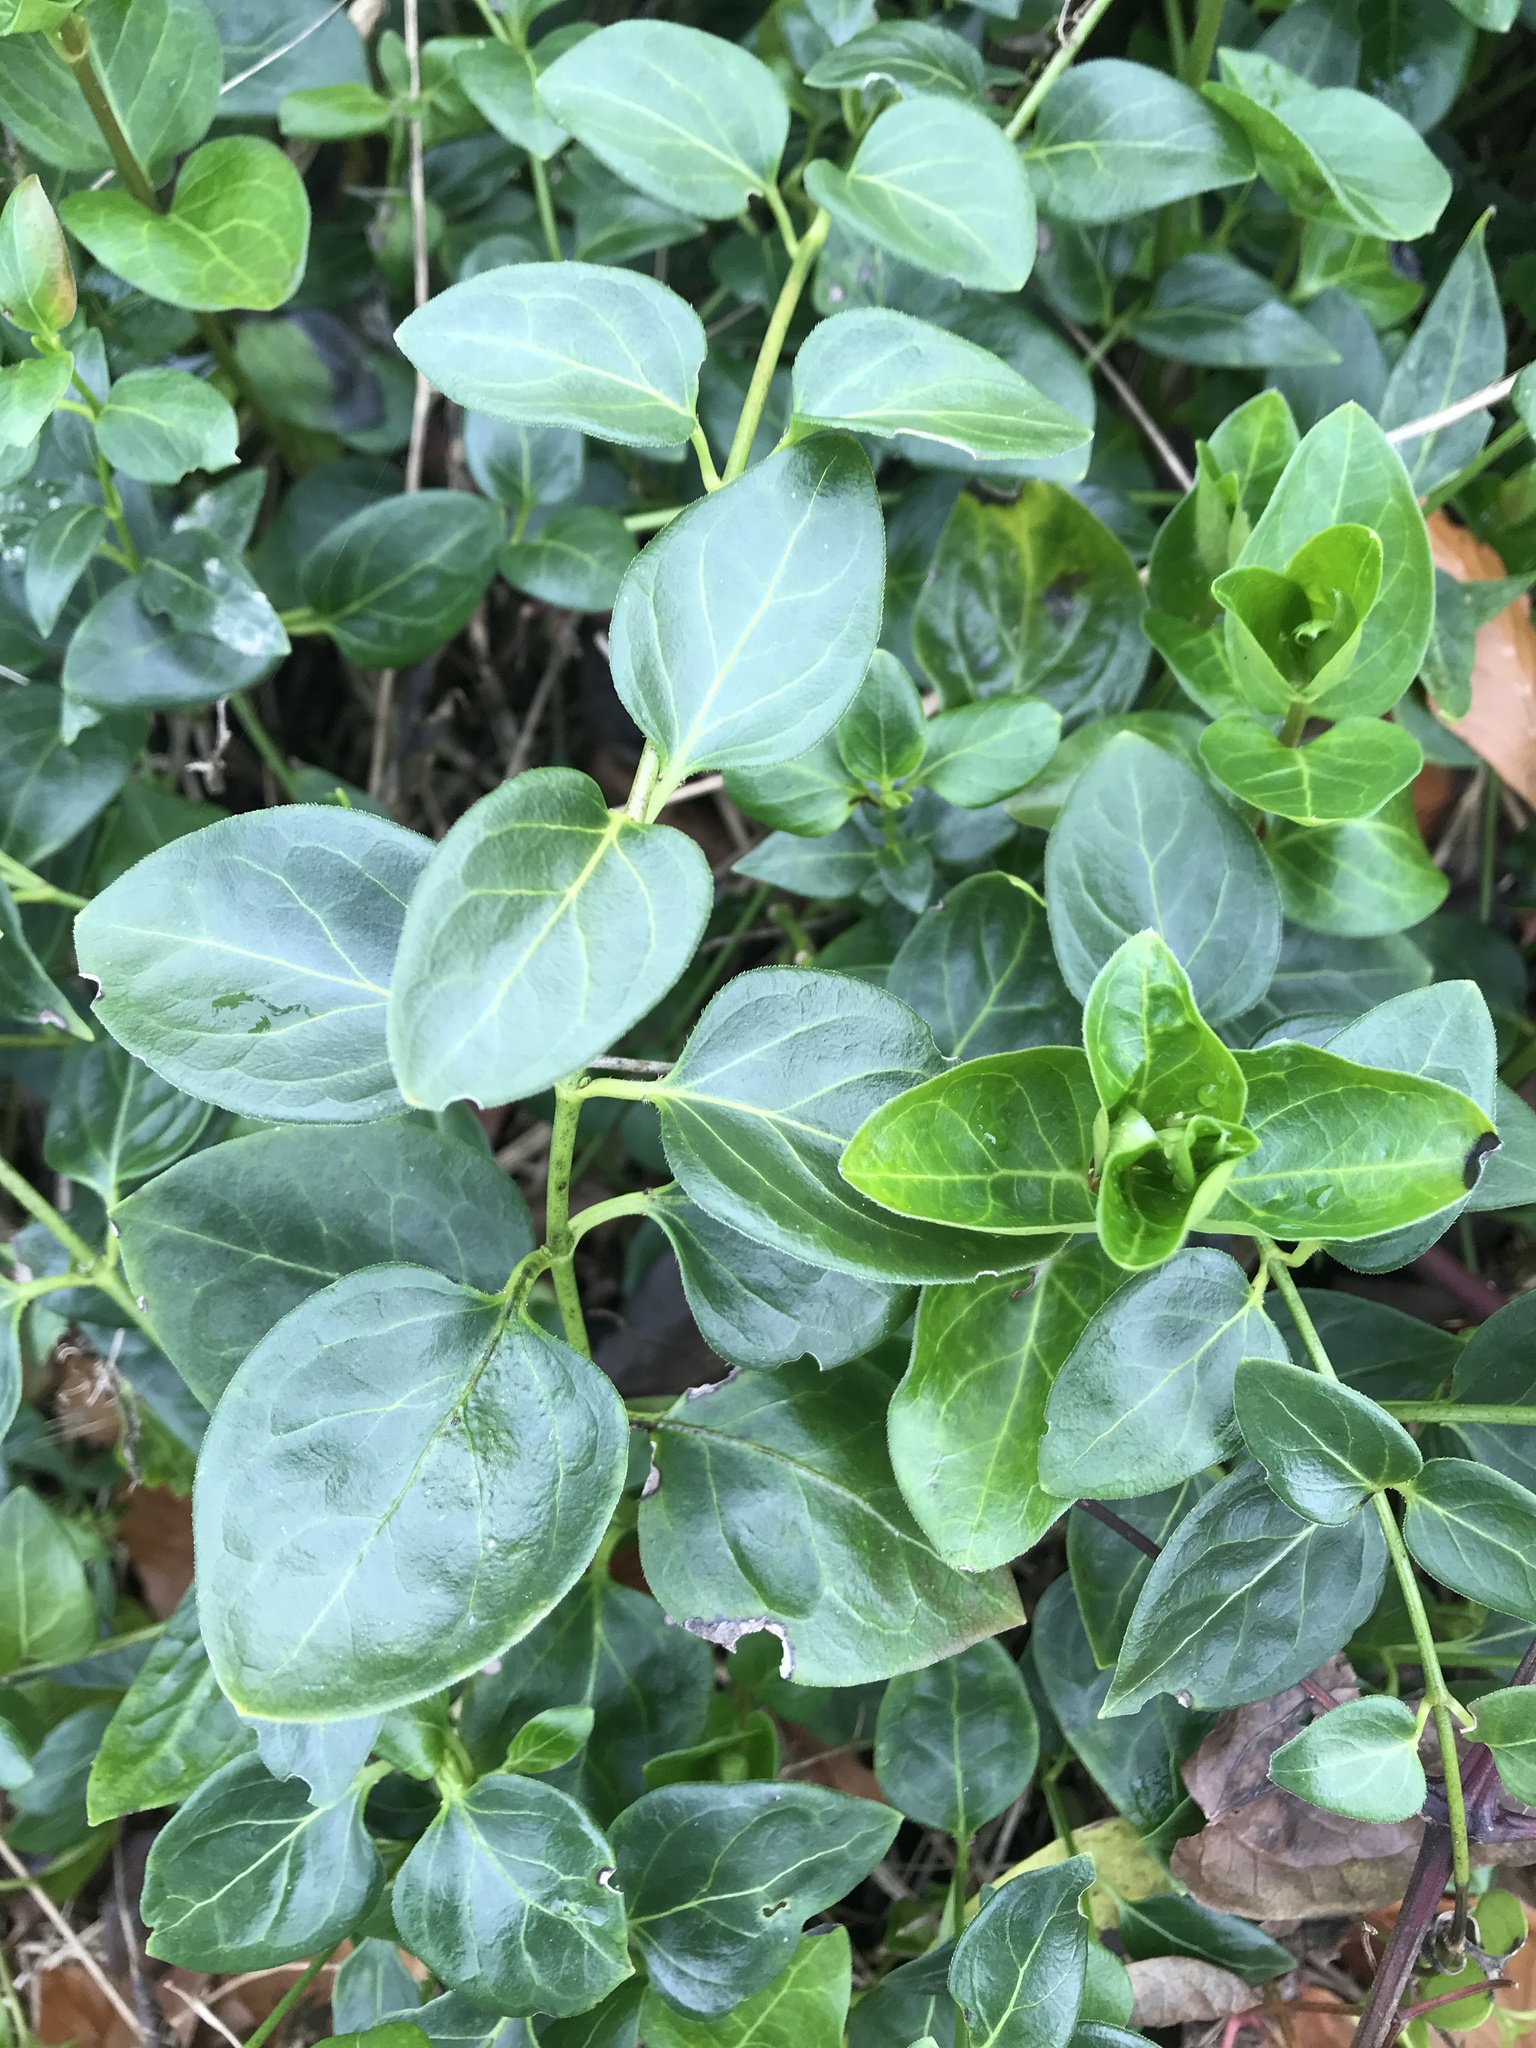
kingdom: Plantae
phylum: Tracheophyta
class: Magnoliopsida
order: Gentianales
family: Apocynaceae
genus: Vinca
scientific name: Vinca major
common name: Greater periwinkle
